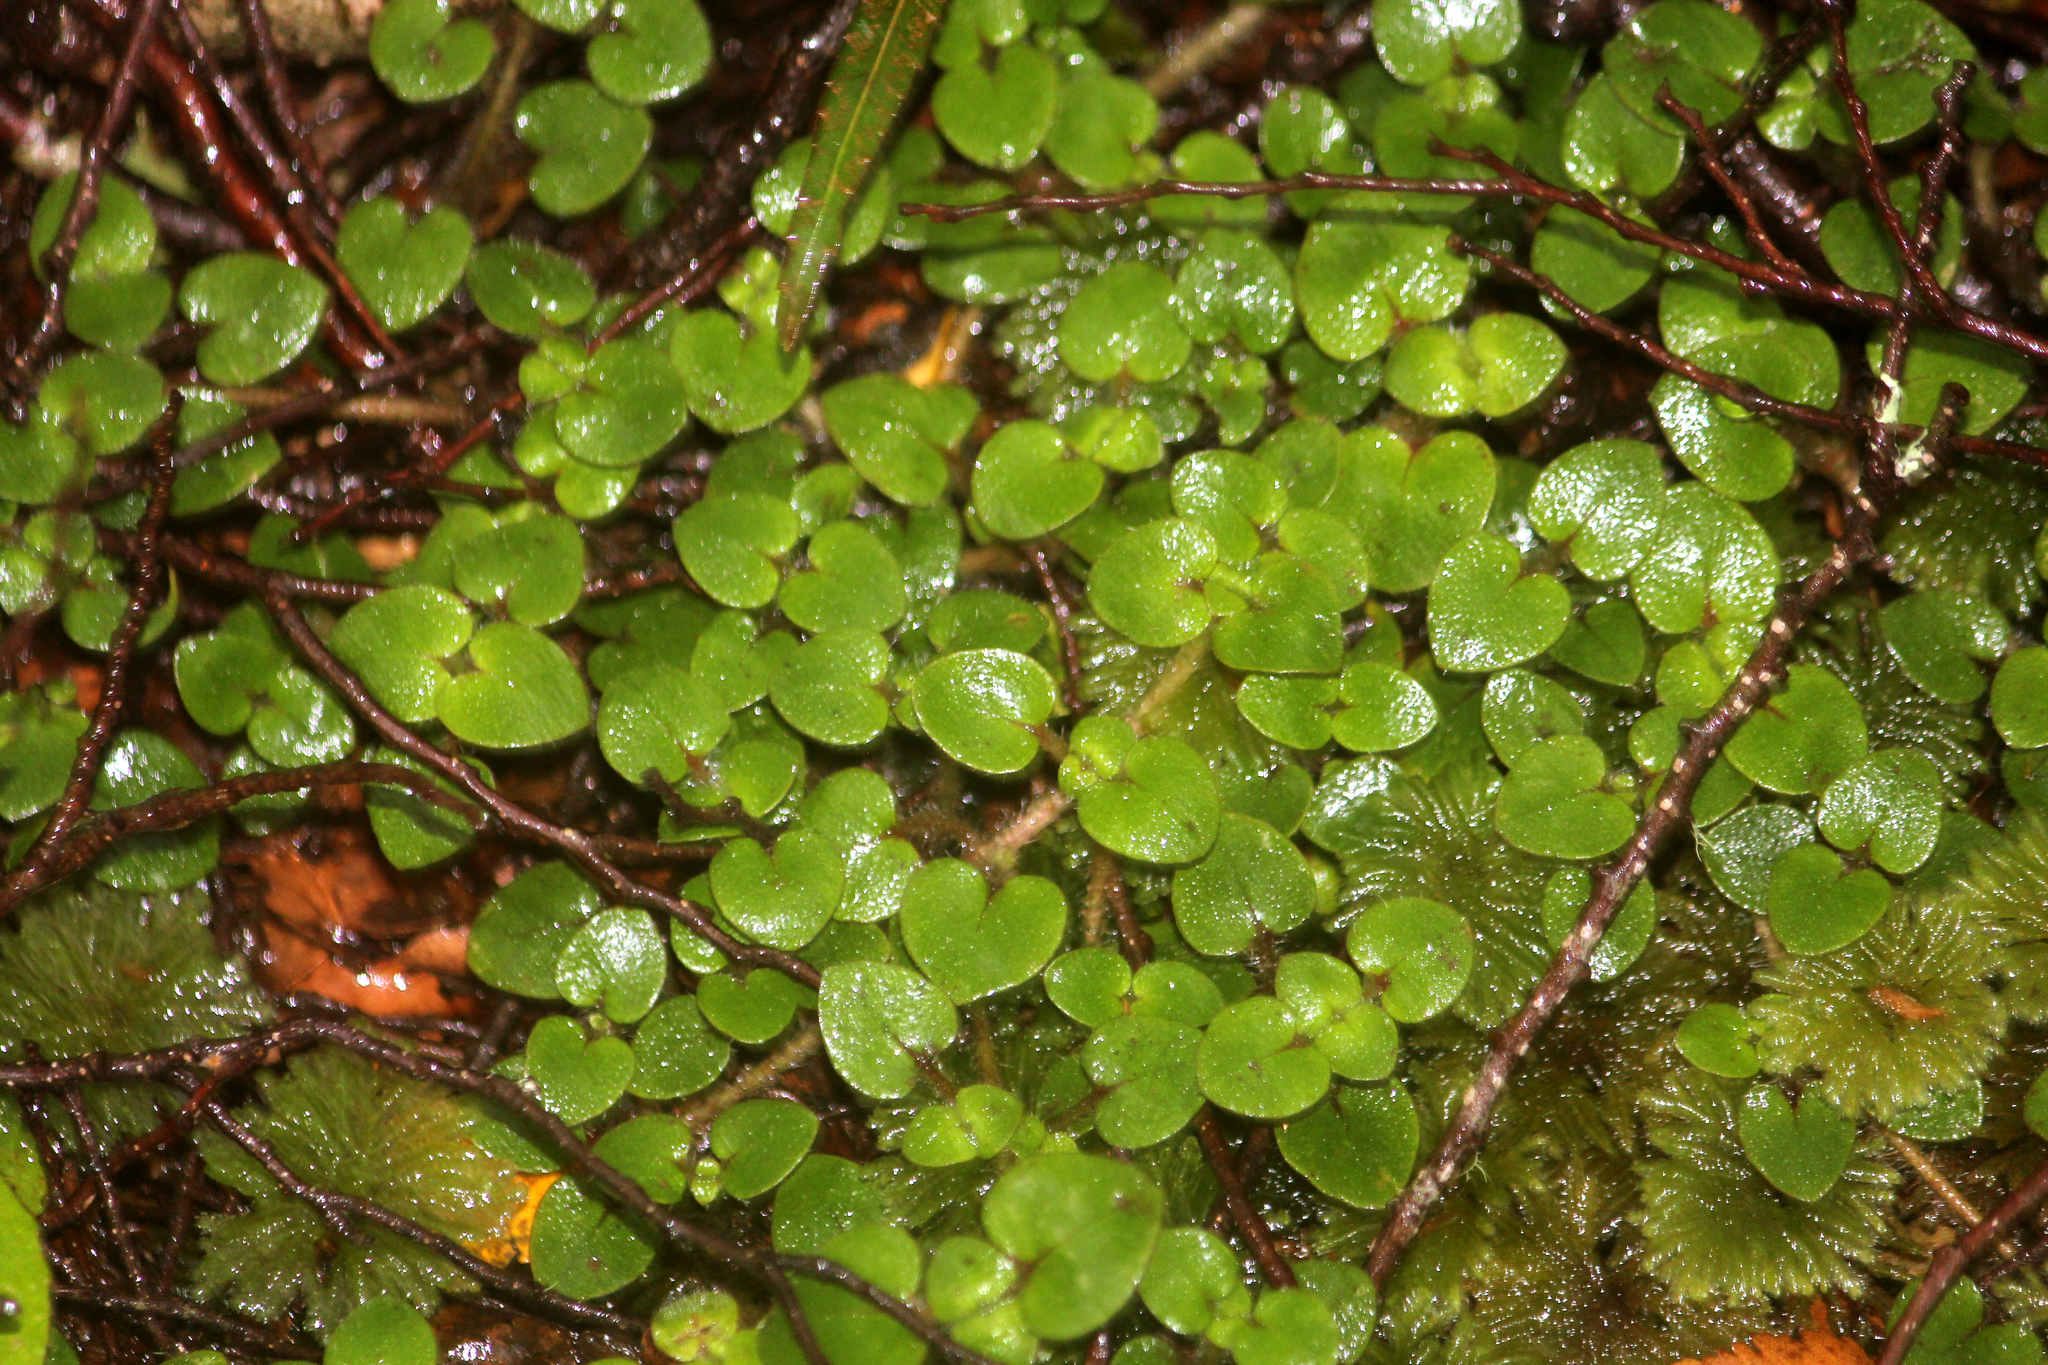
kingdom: Plantae
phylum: Tracheophyta
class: Magnoliopsida
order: Gentianales
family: Rubiaceae
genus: Nertera
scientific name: Nertera villosa
